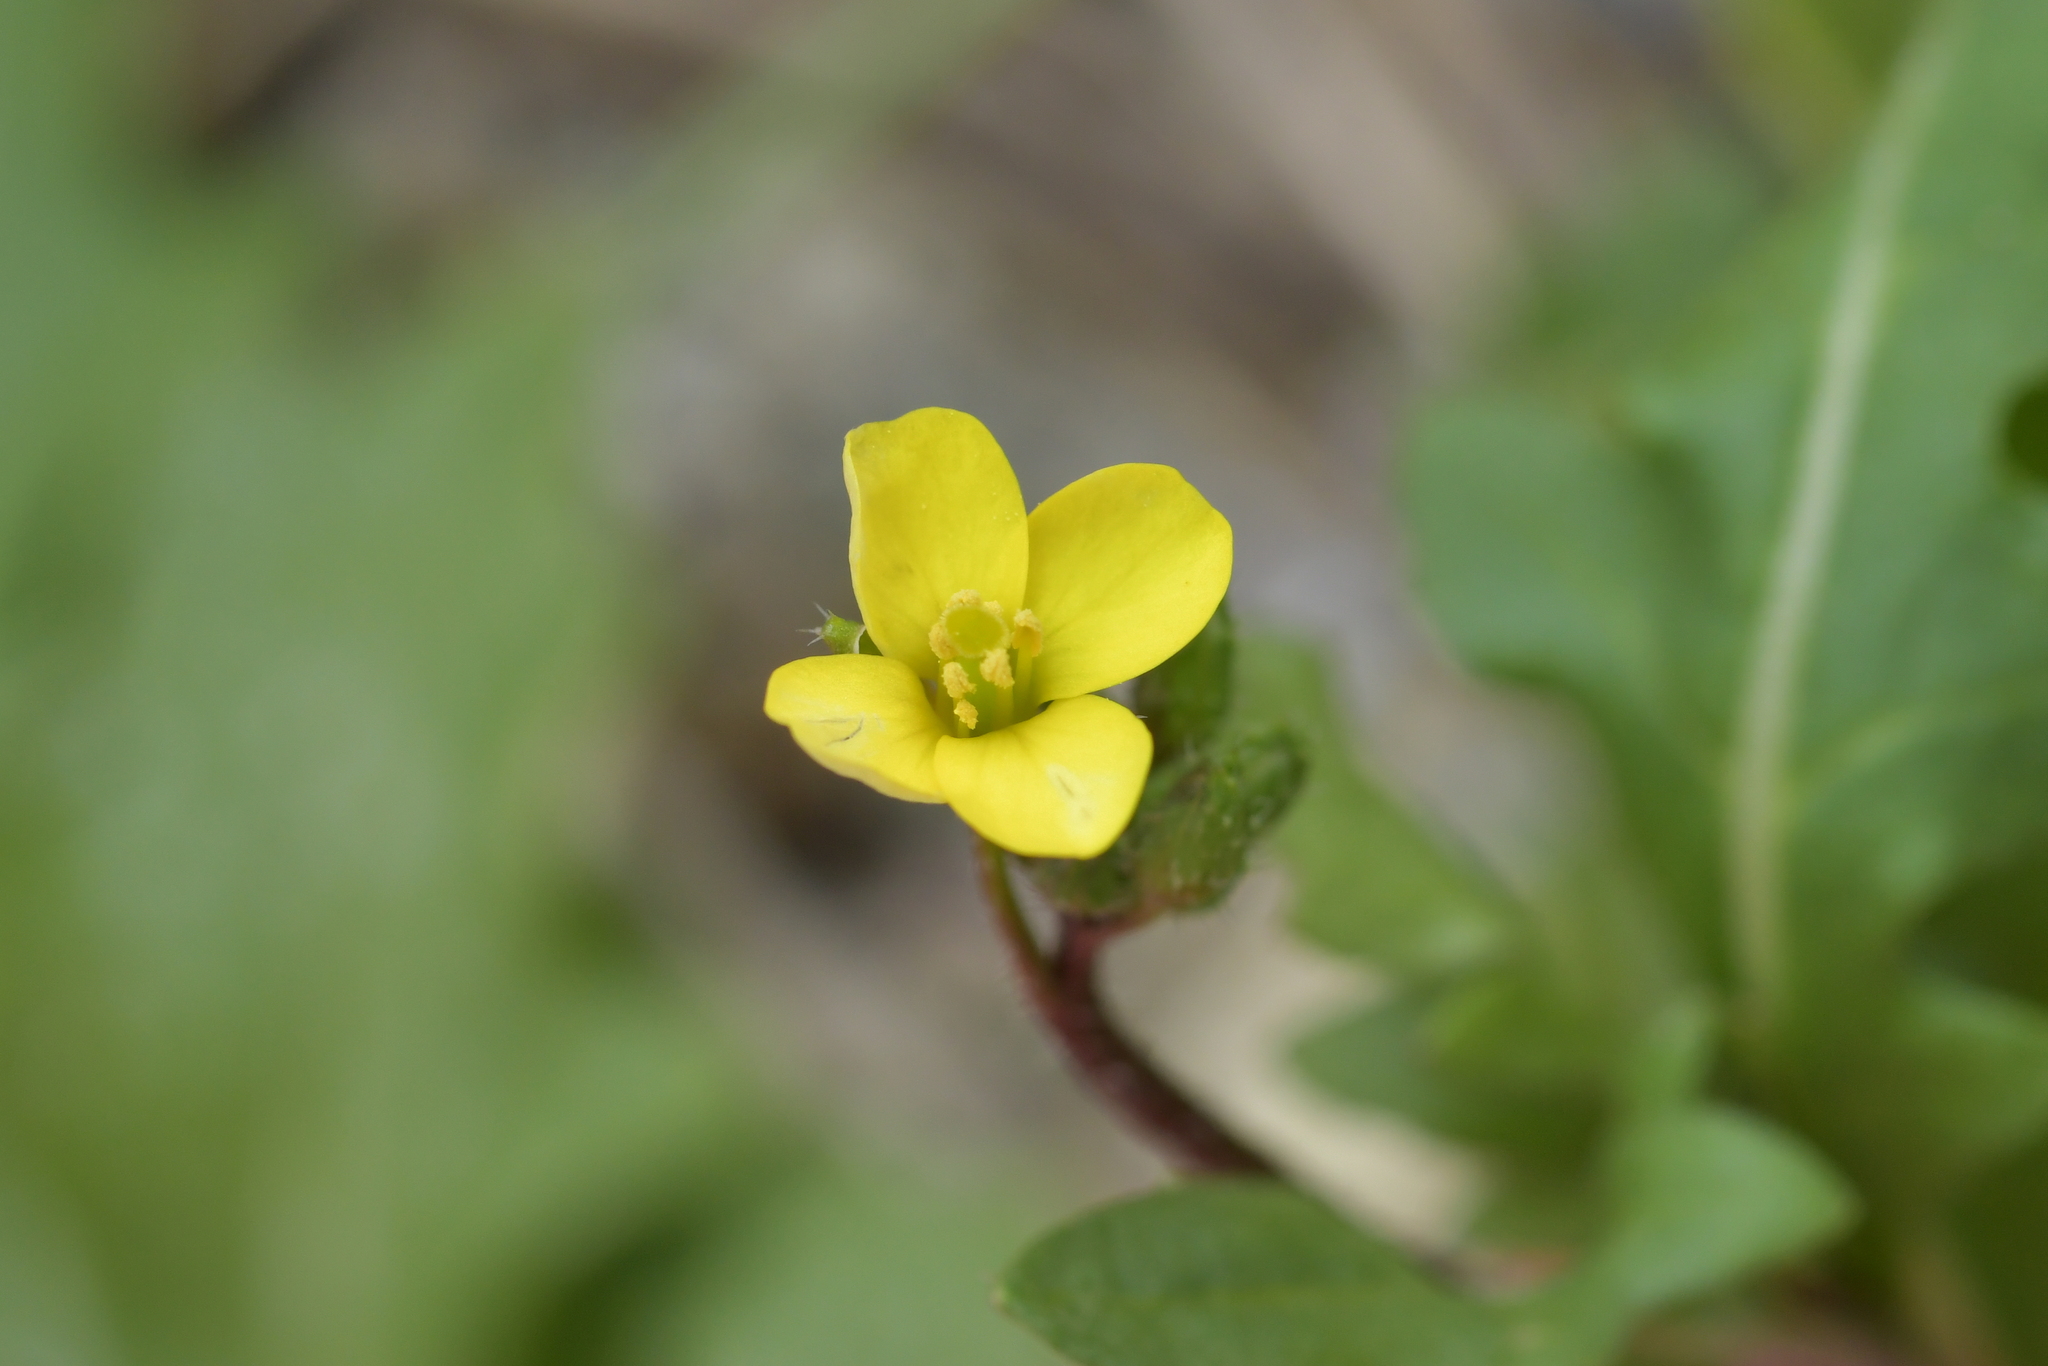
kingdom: Plantae
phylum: Tracheophyta
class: Magnoliopsida
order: Brassicales
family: Brassicaceae
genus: Diplotaxis
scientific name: Diplotaxis muralis
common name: Annual wall-rocket
